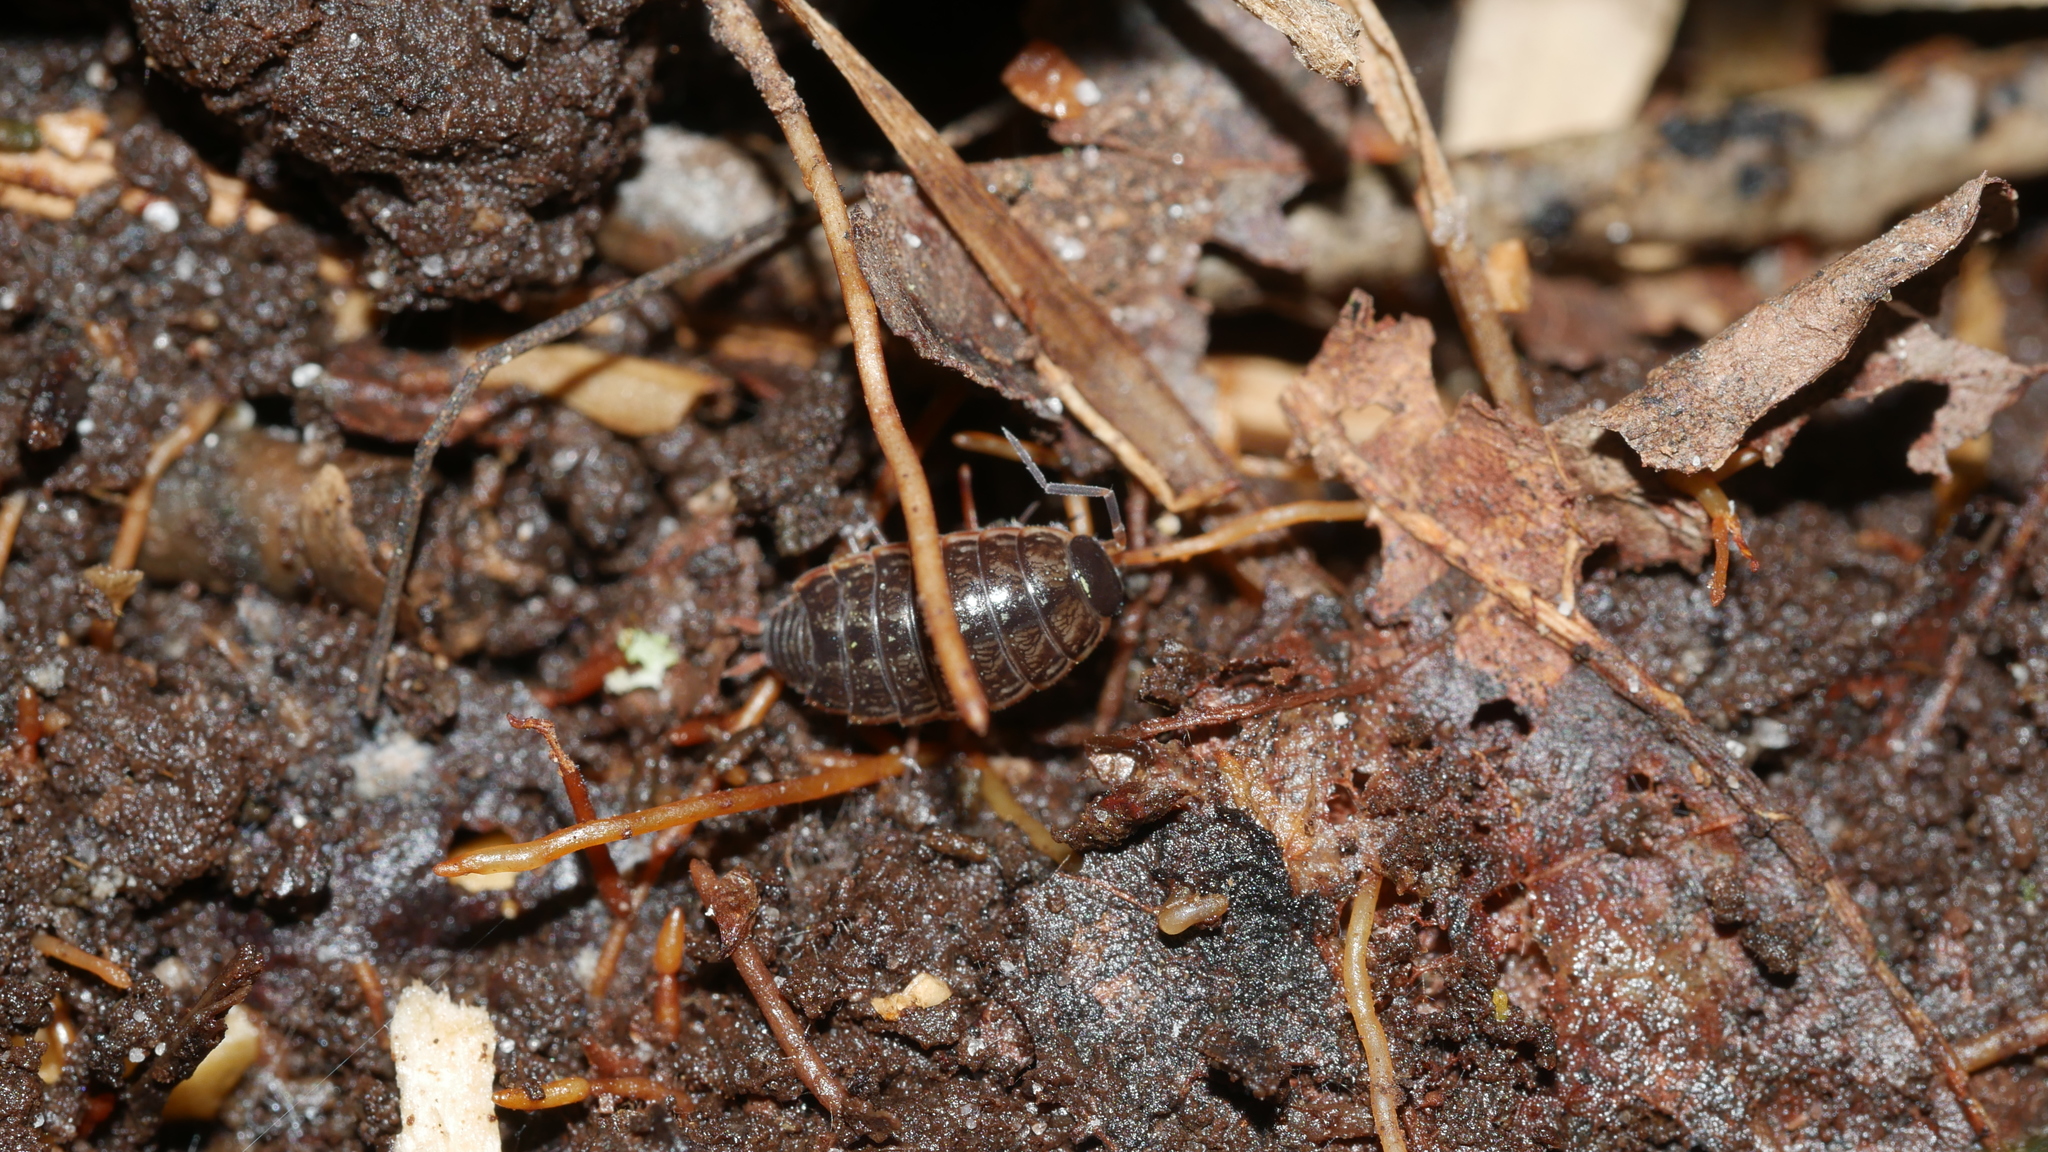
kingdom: Animalia
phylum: Arthropoda
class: Malacostraca
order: Isopoda
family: Philosciidae
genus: Philoscia
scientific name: Philoscia muscorum
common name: Common striped woodlouse
